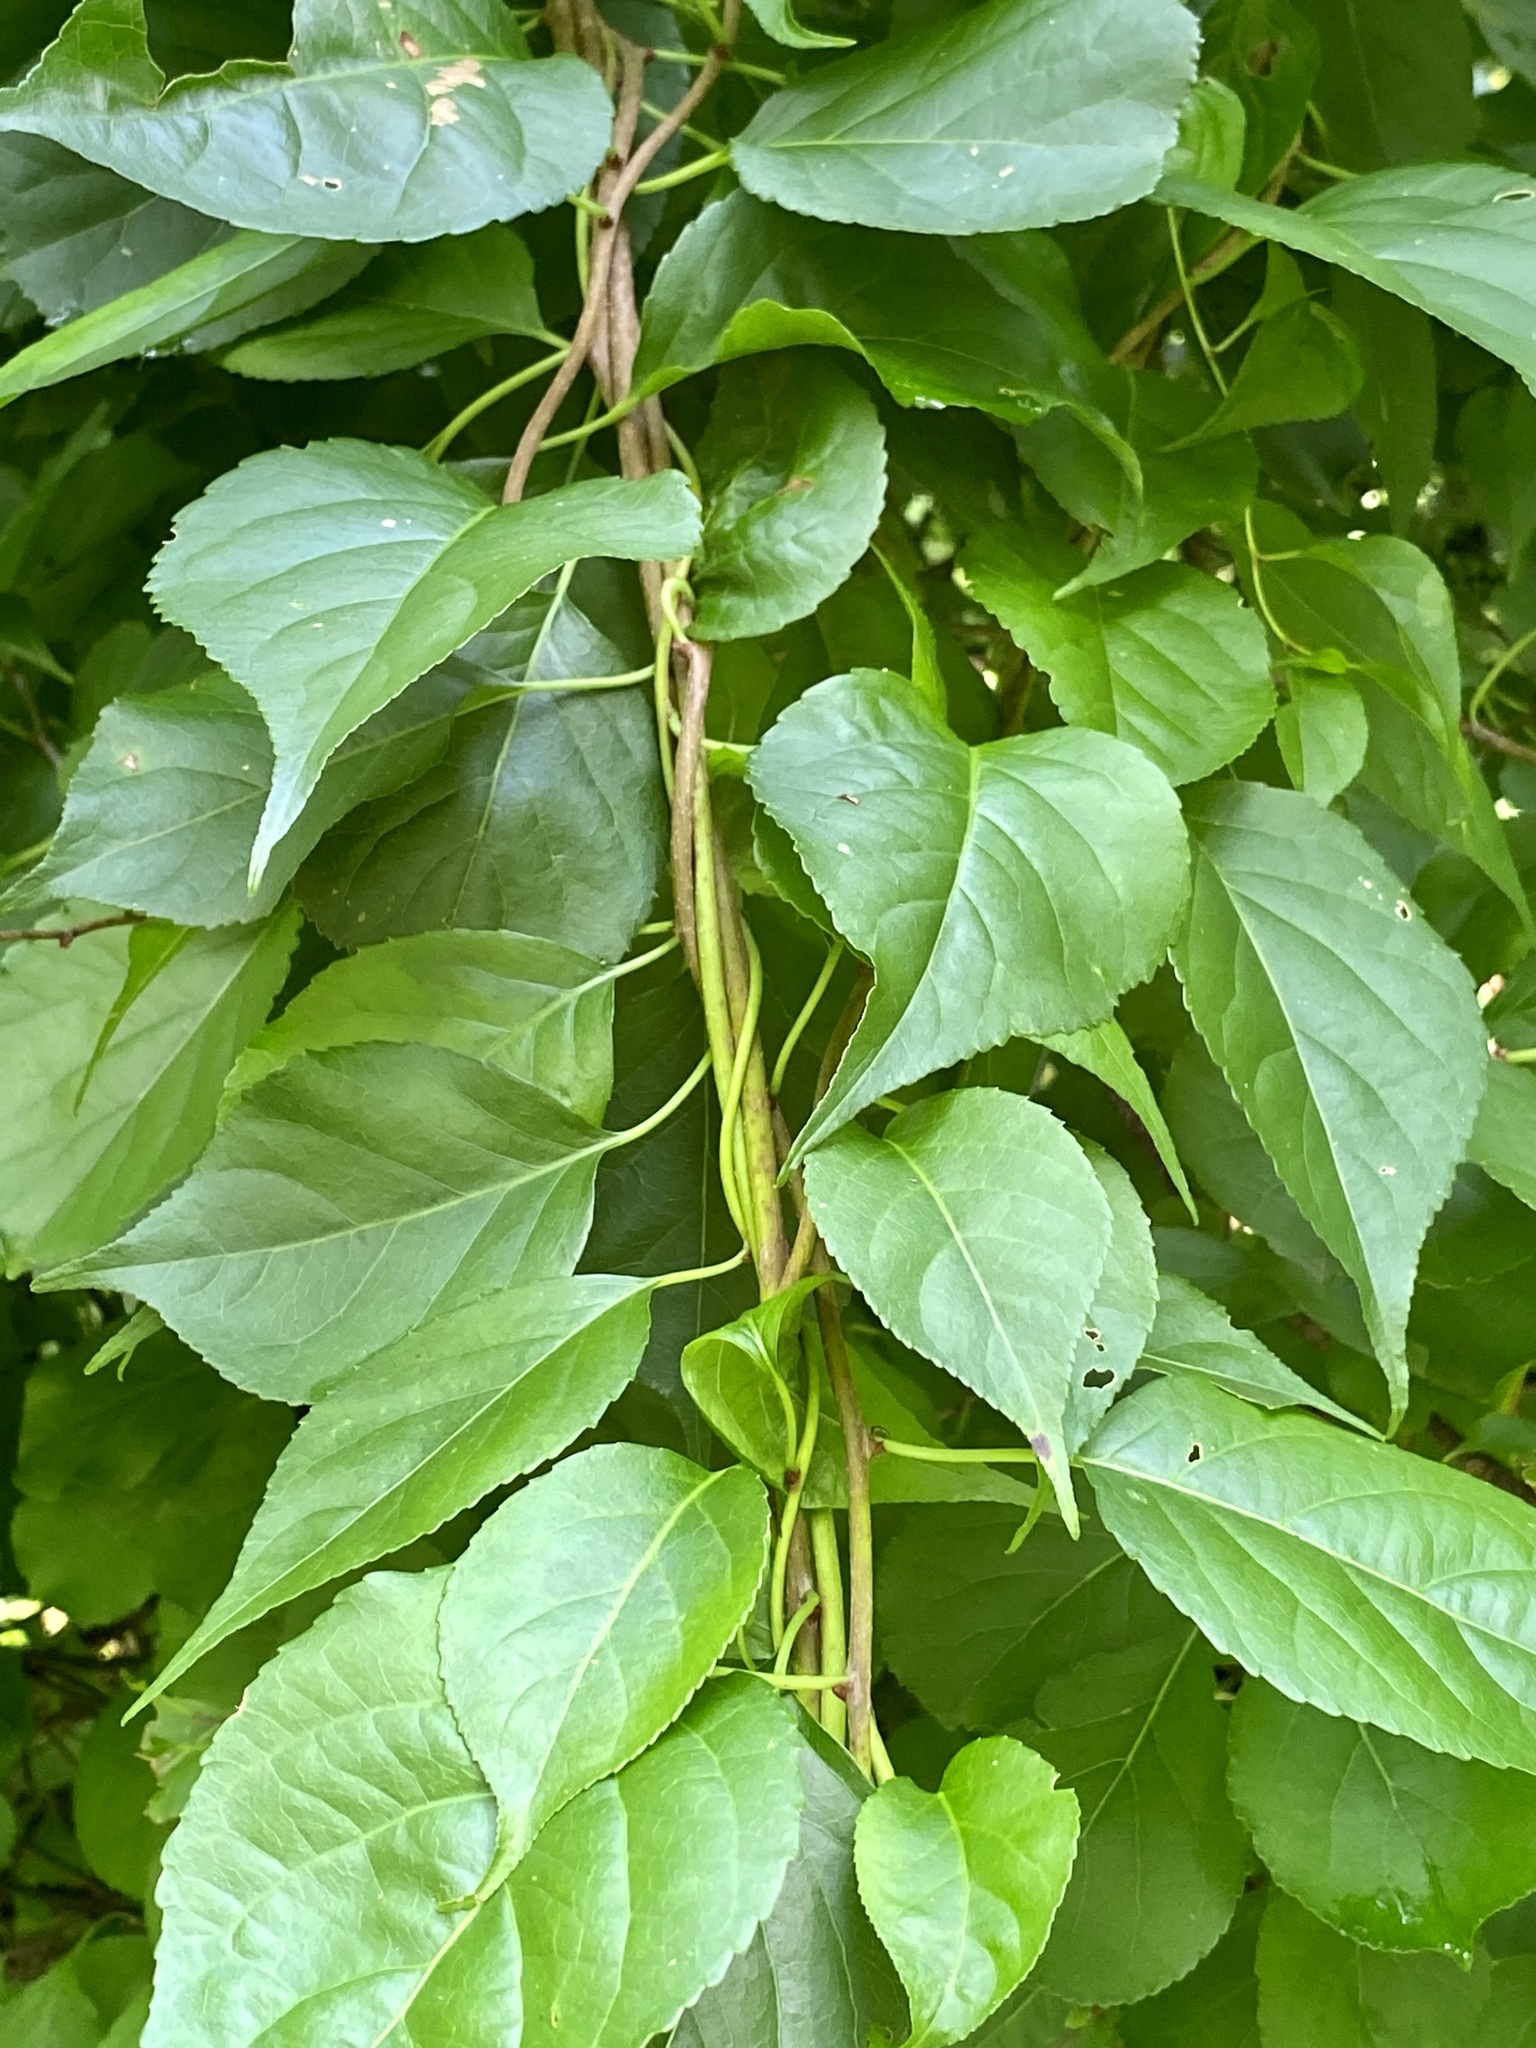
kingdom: Plantae
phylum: Tracheophyta
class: Magnoliopsida
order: Celastrales
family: Celastraceae
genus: Celastrus
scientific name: Celastrus orbiculatus
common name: Oriental bittersweet
